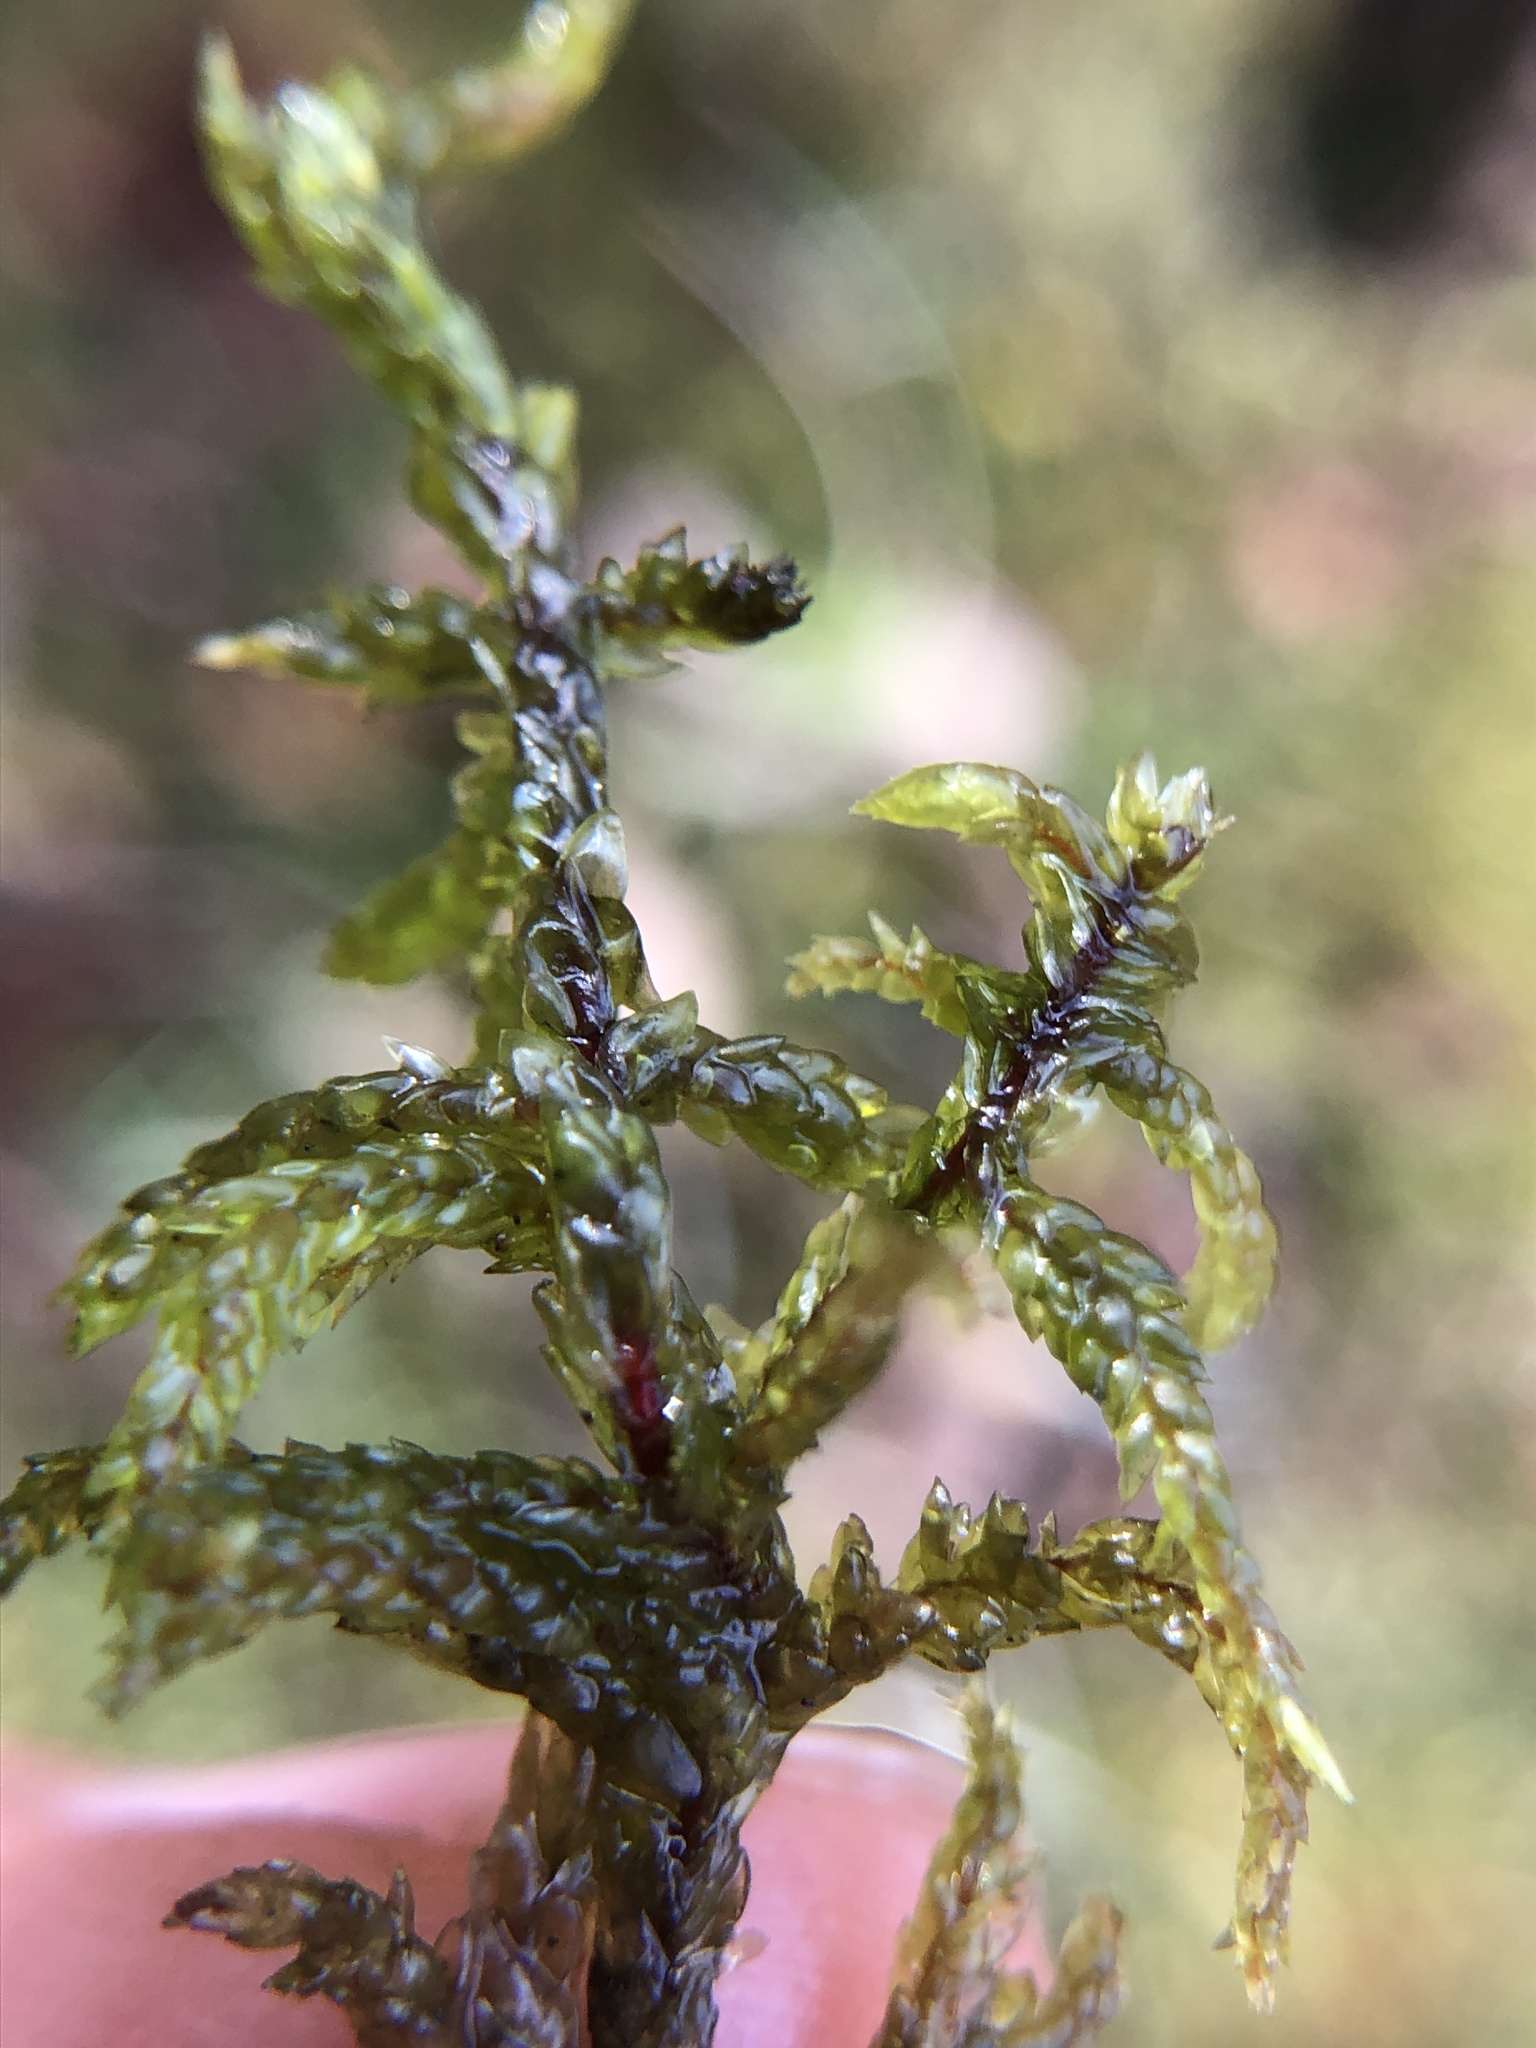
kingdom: Plantae
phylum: Bryophyta
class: Bryopsida
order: Hypnales
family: Hylocomiaceae
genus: Pleurozium
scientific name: Pleurozium schreberi
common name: Red-stemmed feather moss
